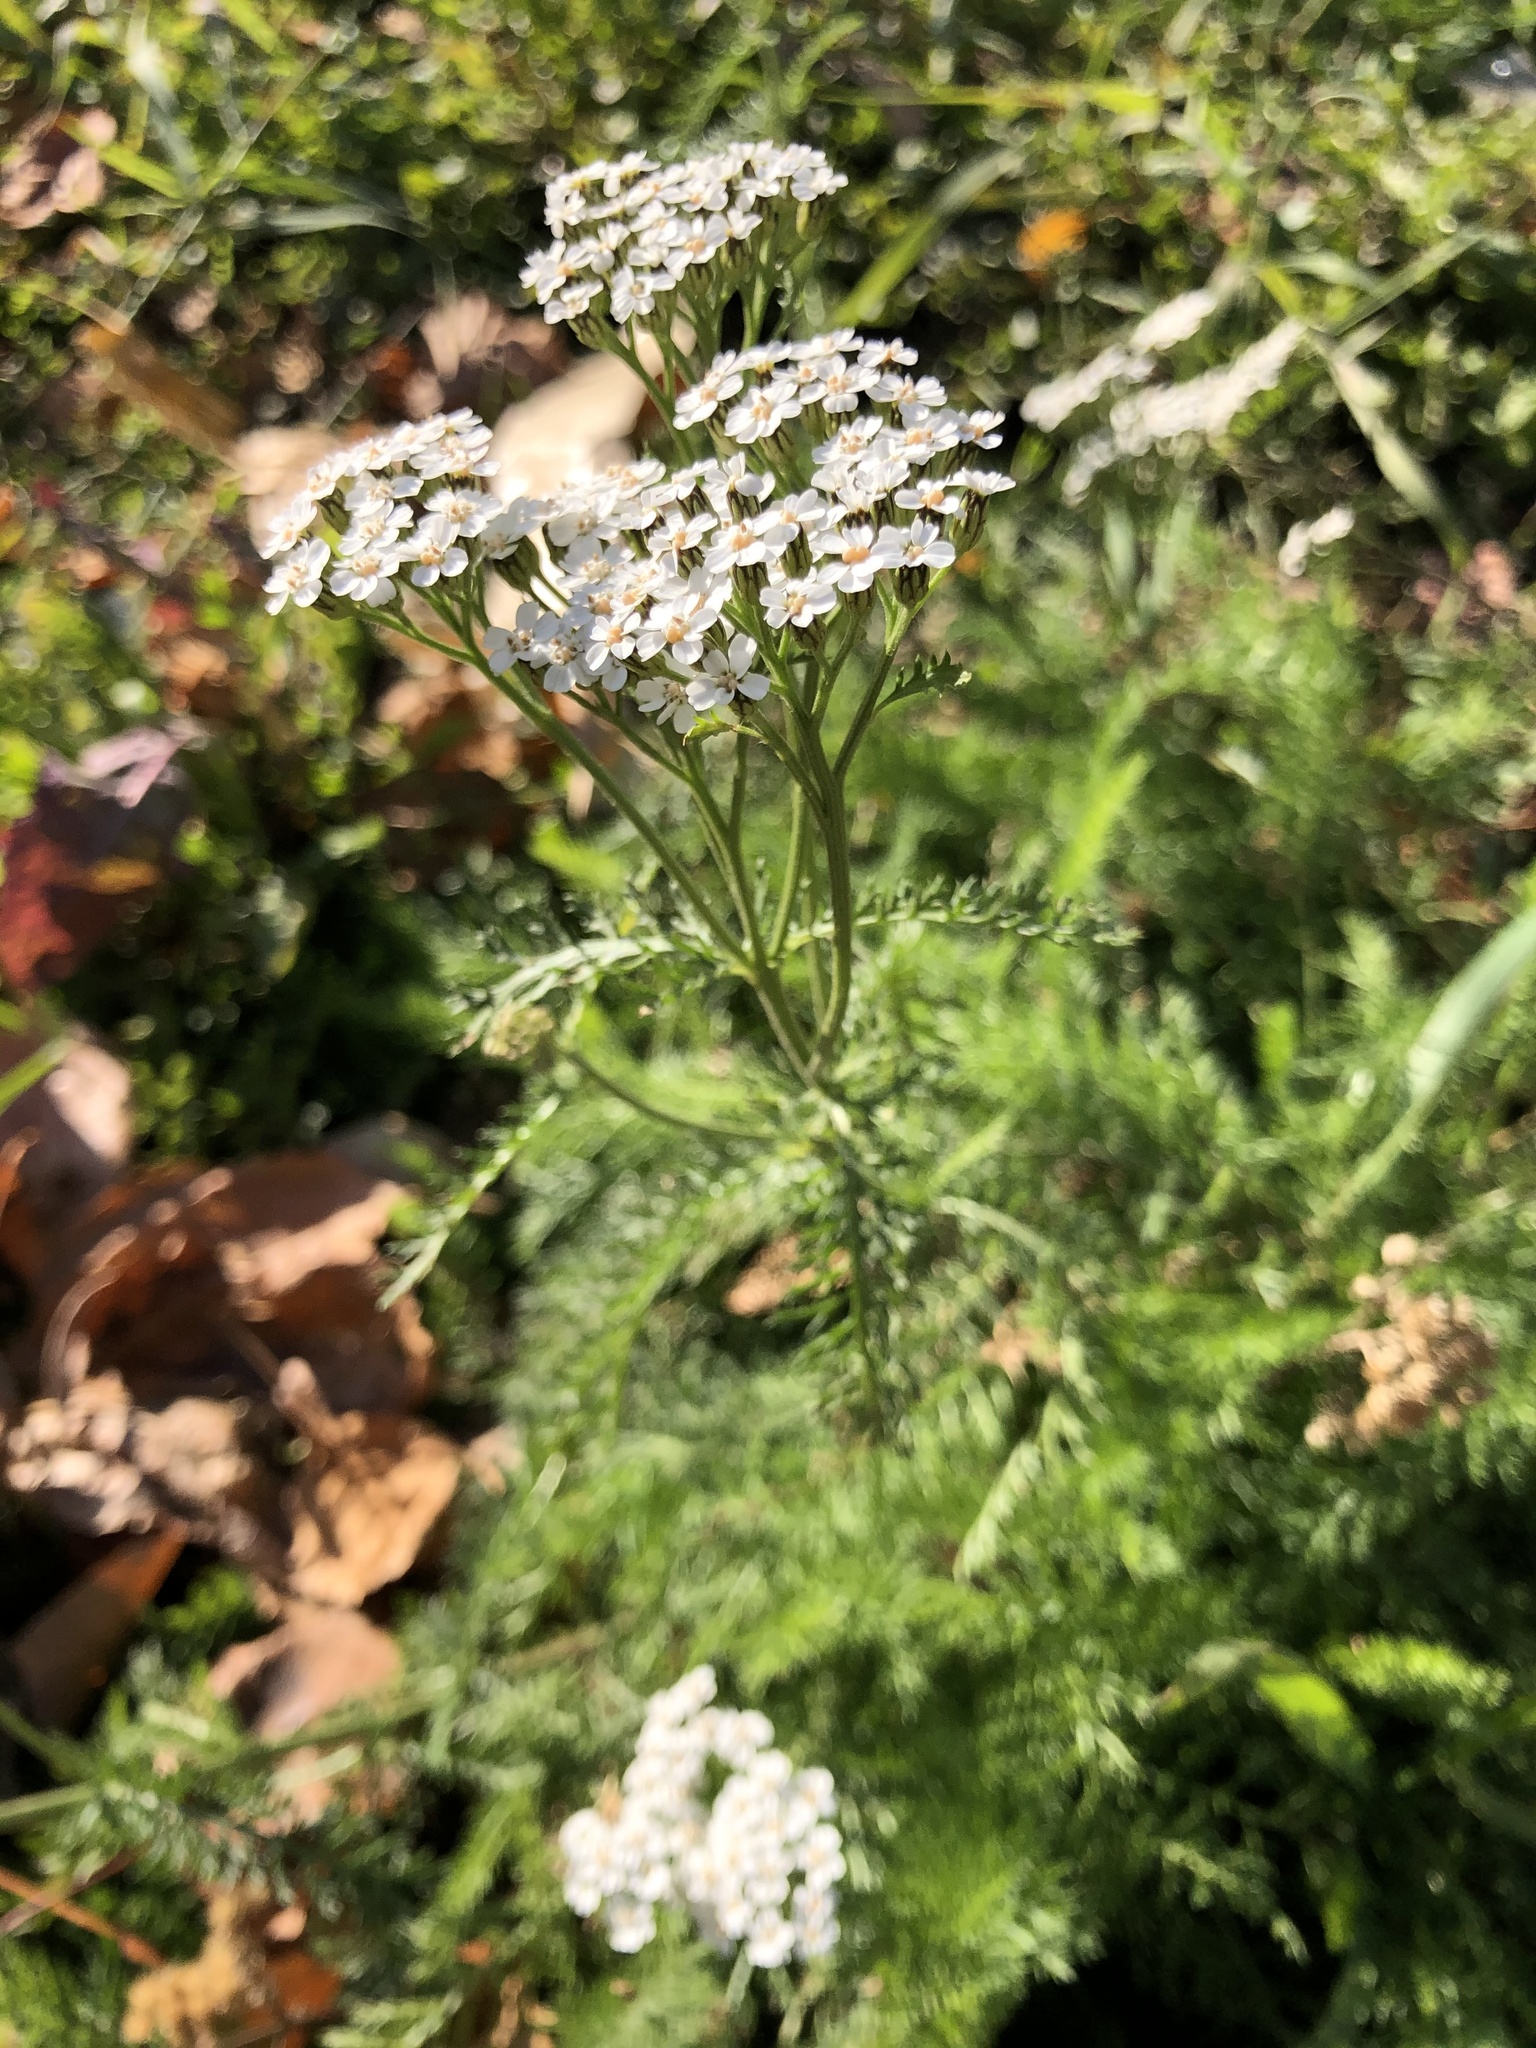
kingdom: Plantae
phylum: Tracheophyta
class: Magnoliopsida
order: Asterales
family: Asteraceae
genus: Achillea
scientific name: Achillea millefolium
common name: Yarrow
